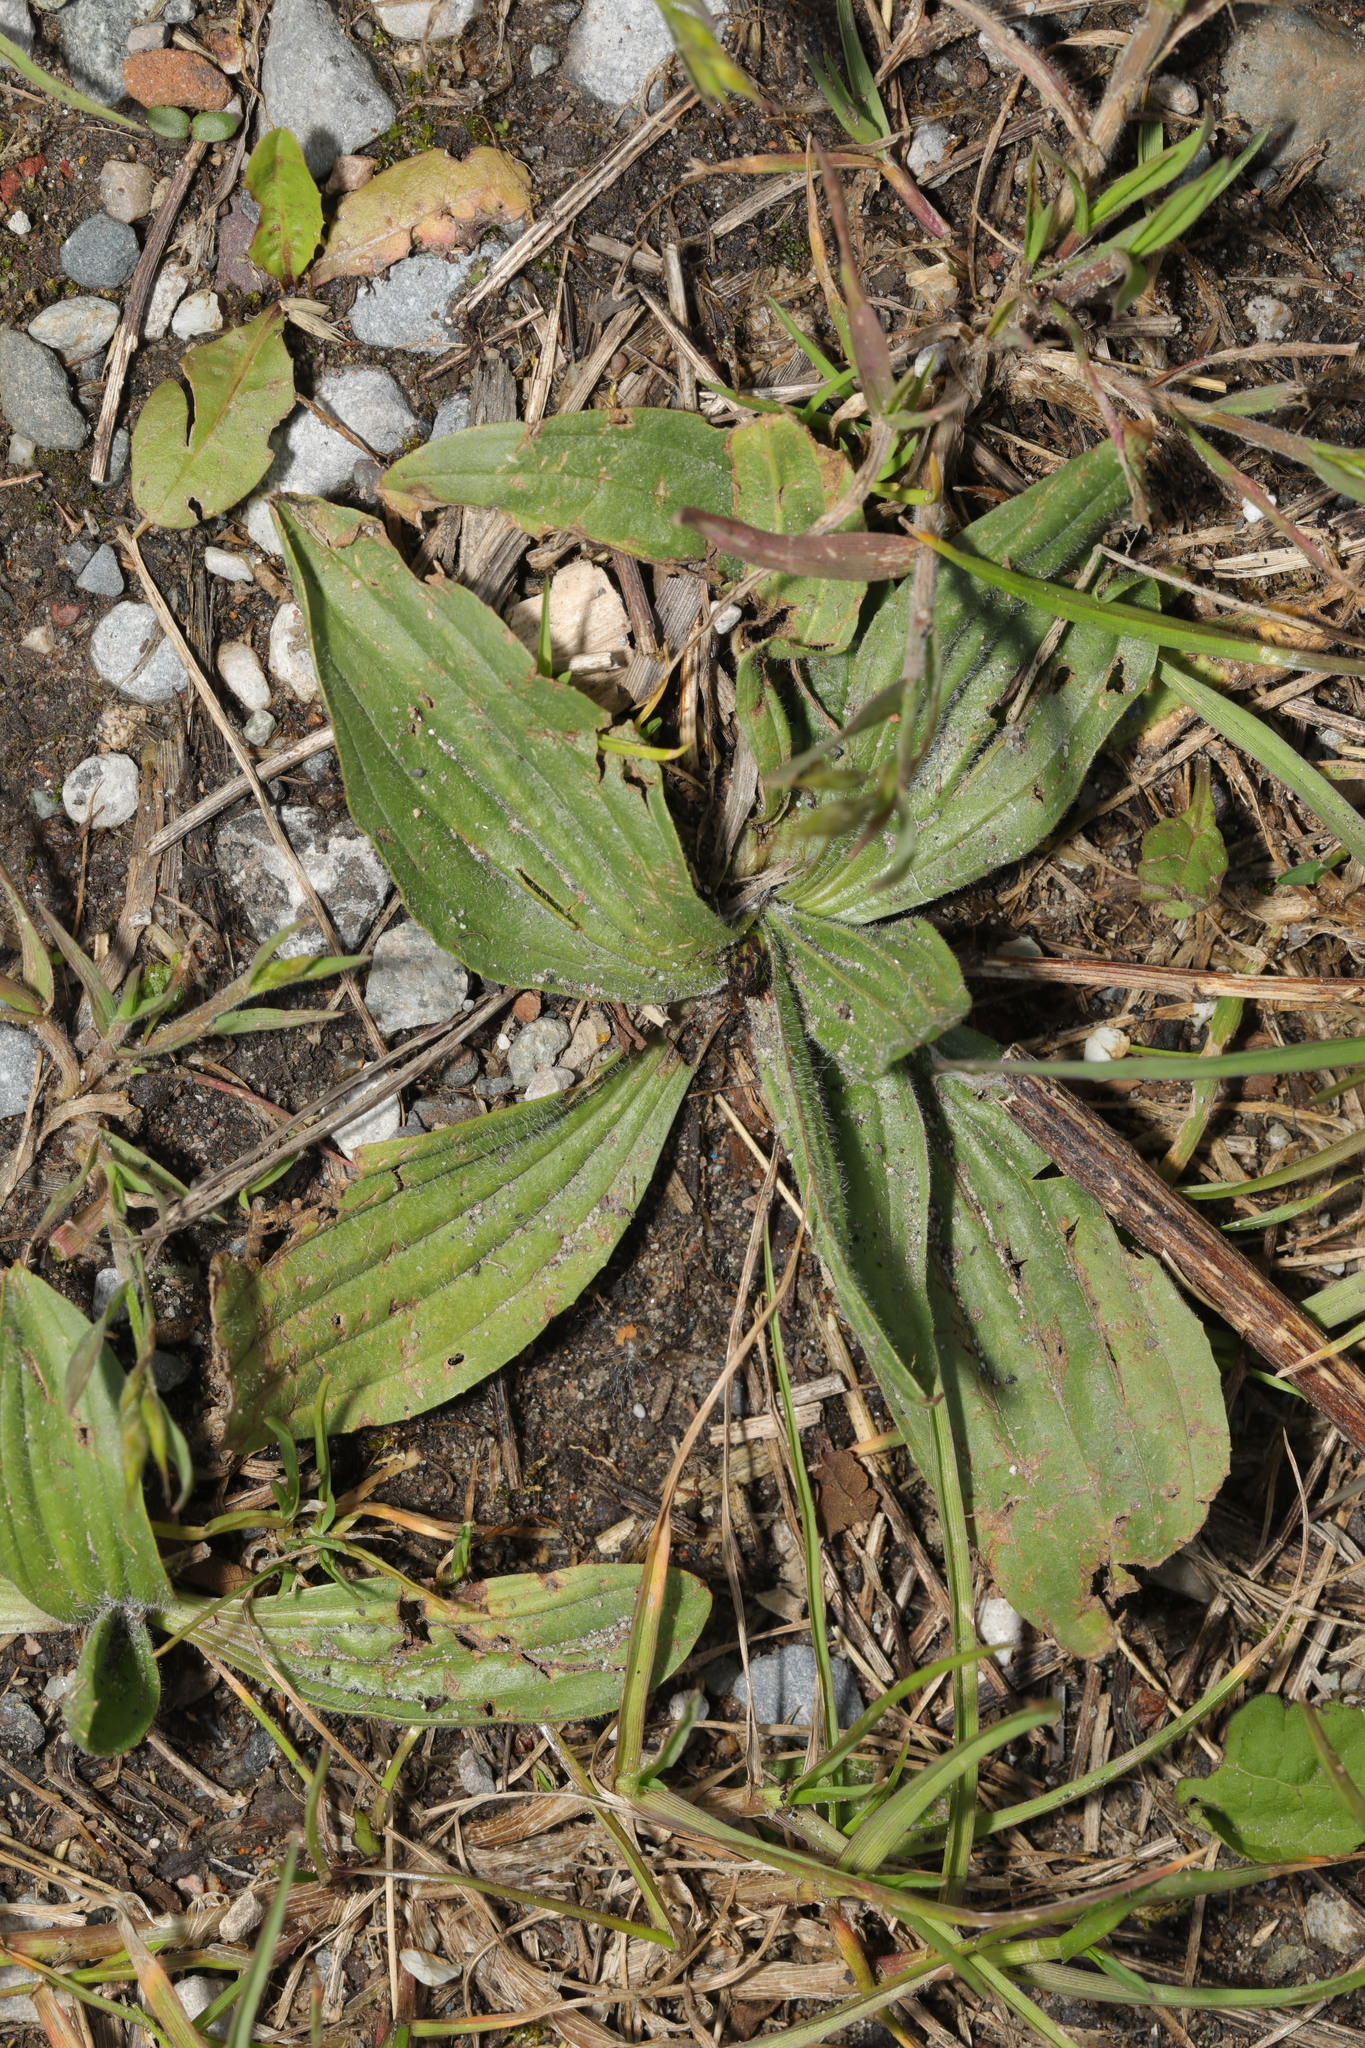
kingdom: Plantae
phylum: Tracheophyta
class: Magnoliopsida
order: Lamiales
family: Plantaginaceae
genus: Plantago
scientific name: Plantago media
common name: Hoary plantain
